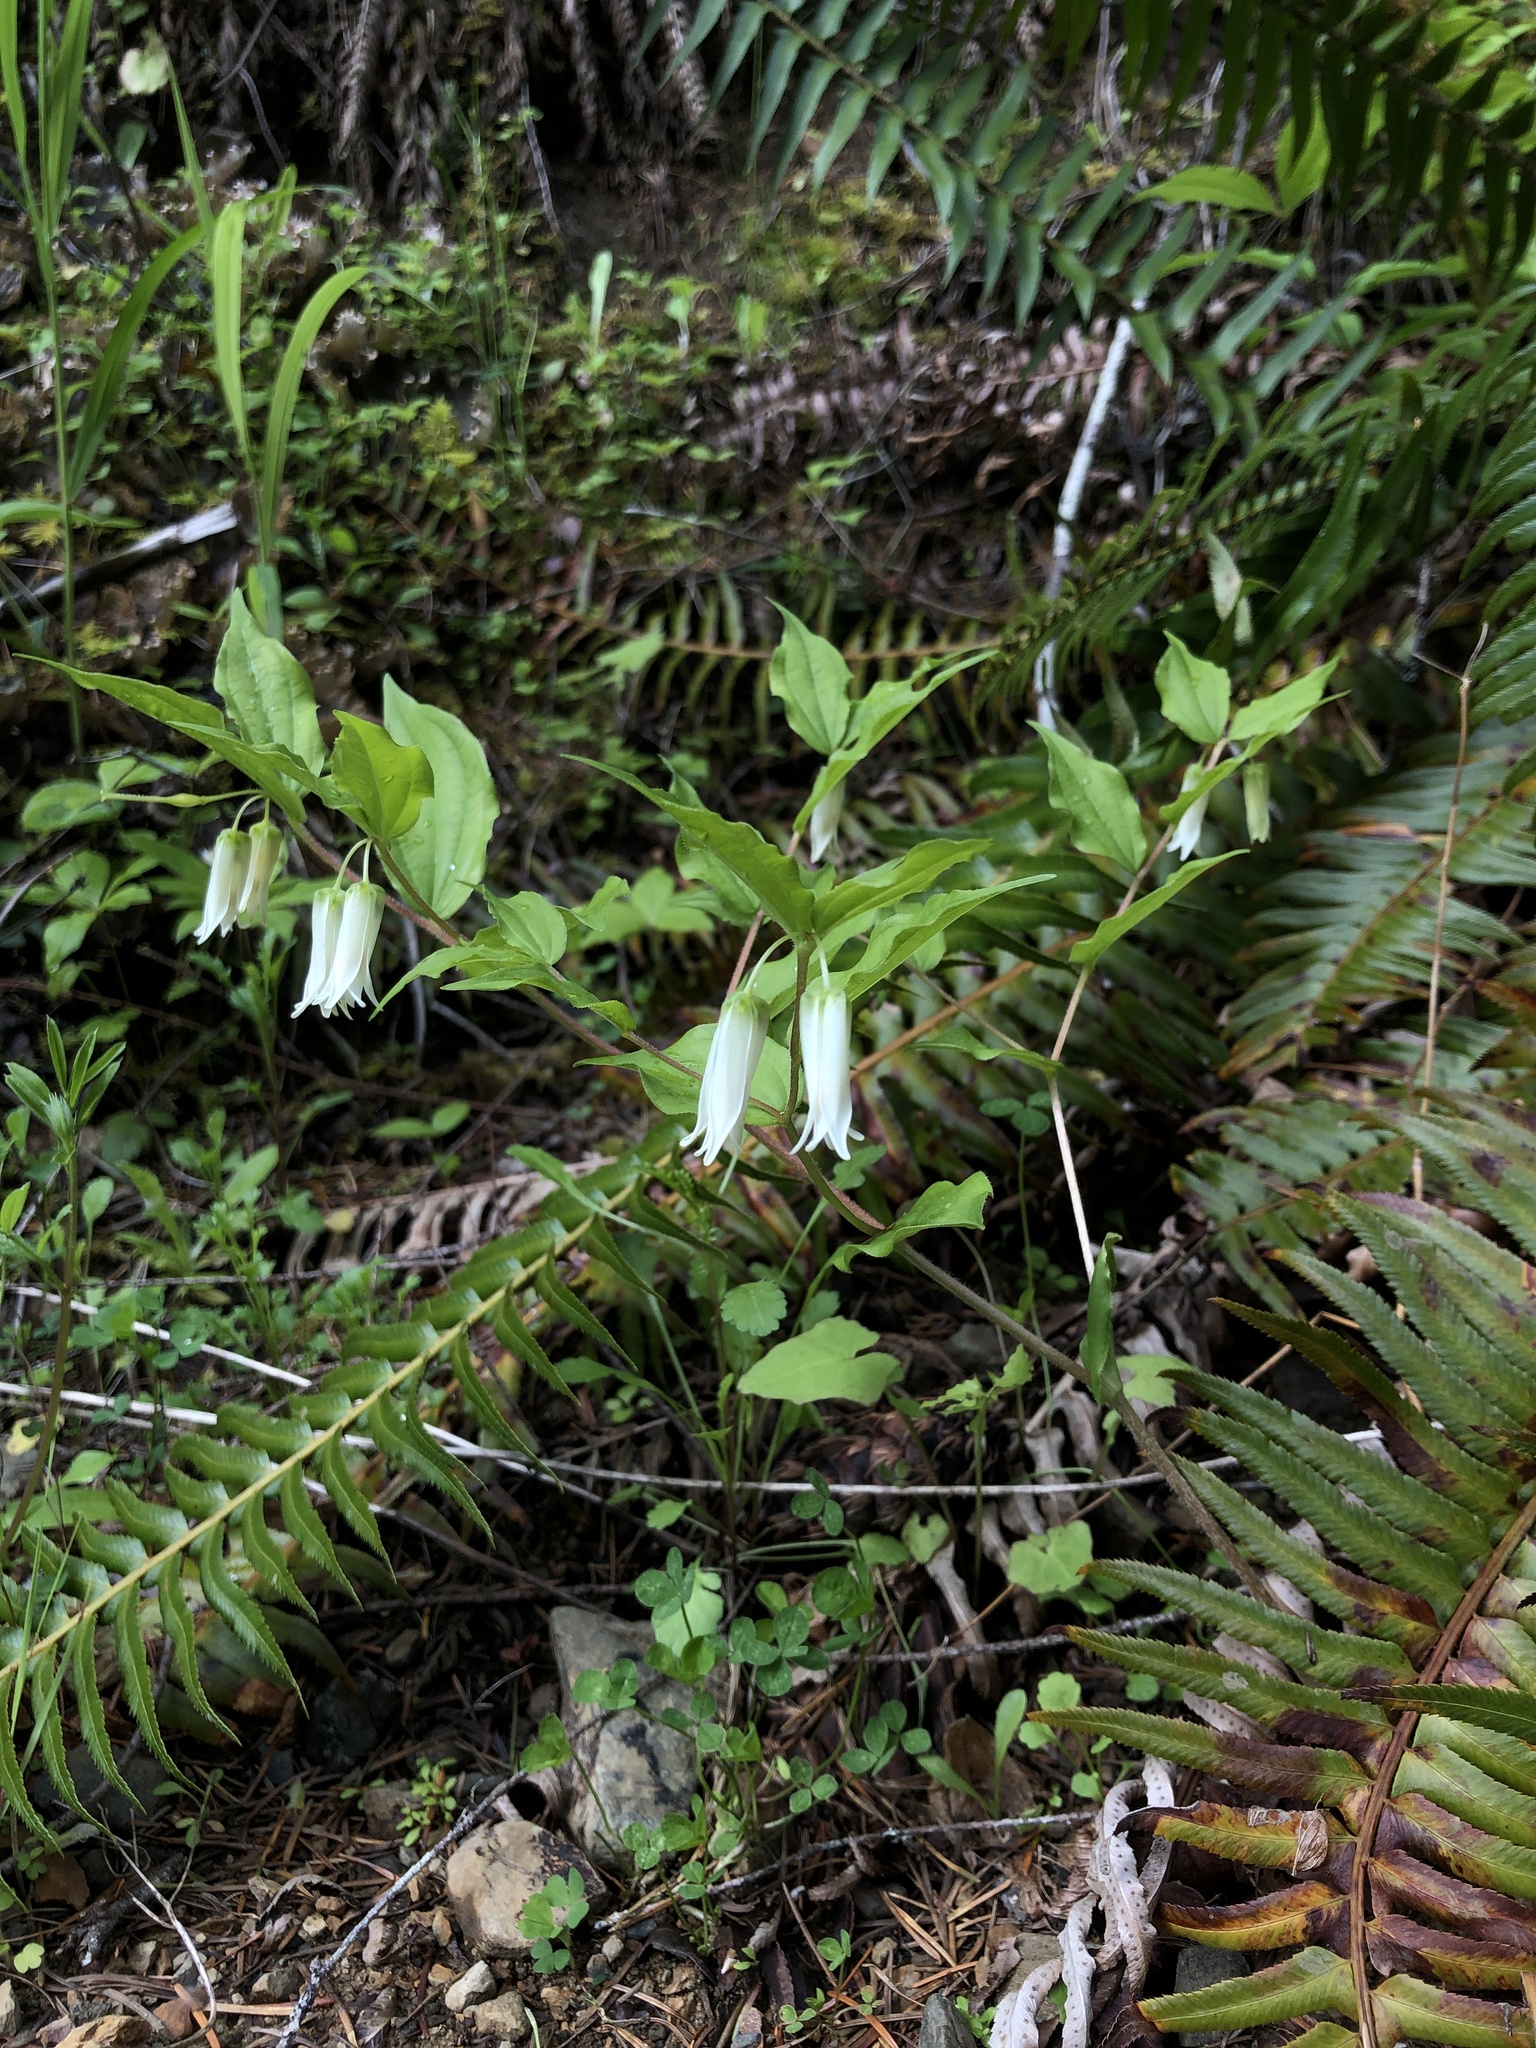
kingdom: Plantae
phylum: Tracheophyta
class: Liliopsida
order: Liliales
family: Liliaceae
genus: Prosartes
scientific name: Prosartes smithii
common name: Fairy-lantern
